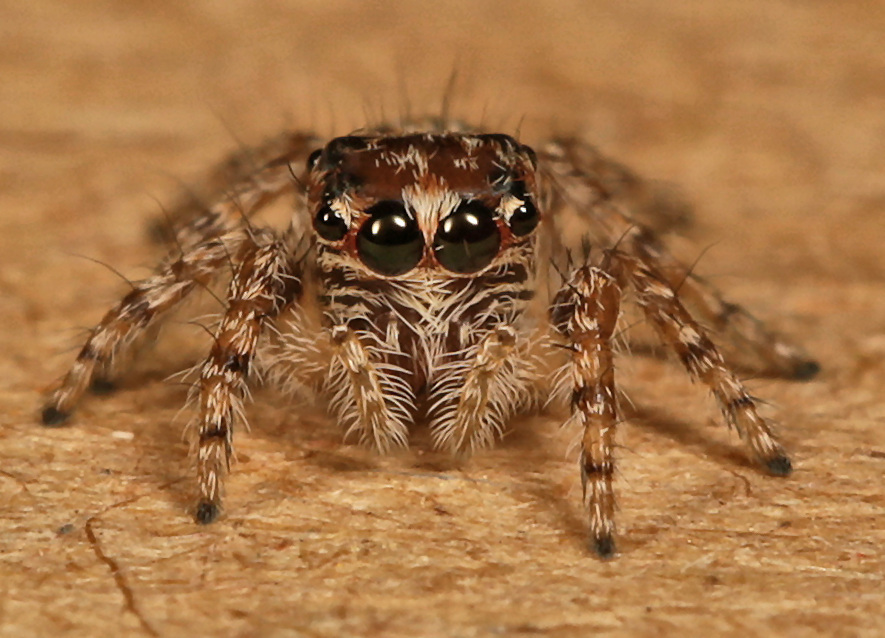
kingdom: Animalia
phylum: Arthropoda
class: Arachnida
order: Araneae
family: Salticidae
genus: Hyllus
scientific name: Hyllus treleaveni
